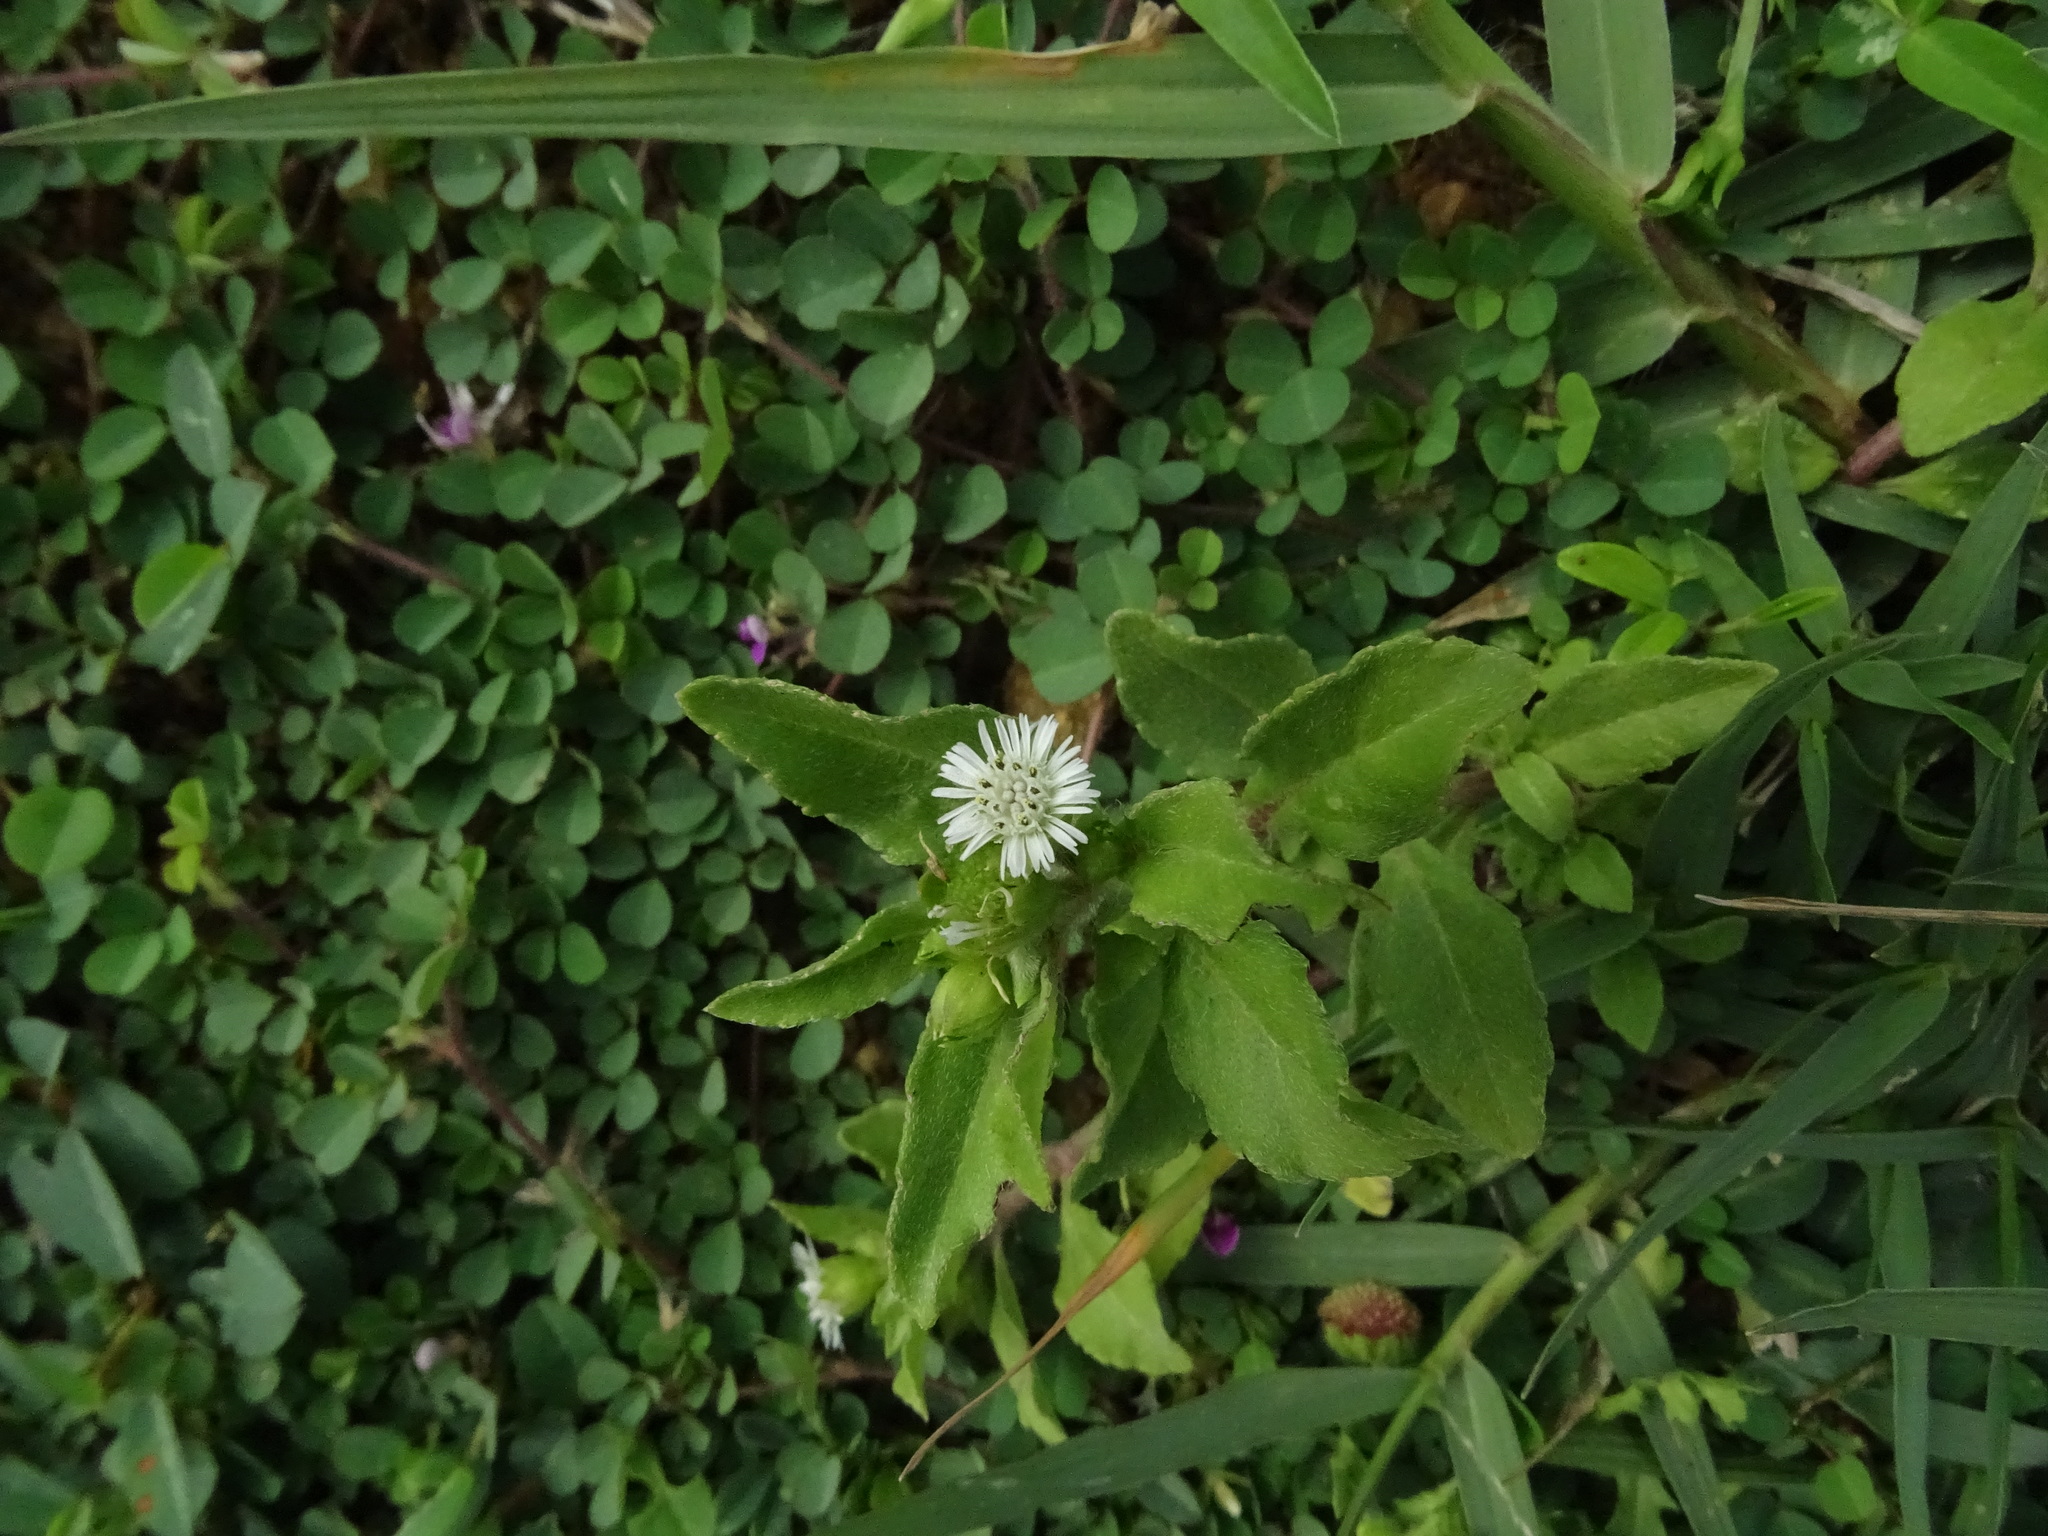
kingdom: Plantae
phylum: Tracheophyta
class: Magnoliopsida
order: Asterales
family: Asteraceae
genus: Eclipta
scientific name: Eclipta prostrata
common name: False daisy
